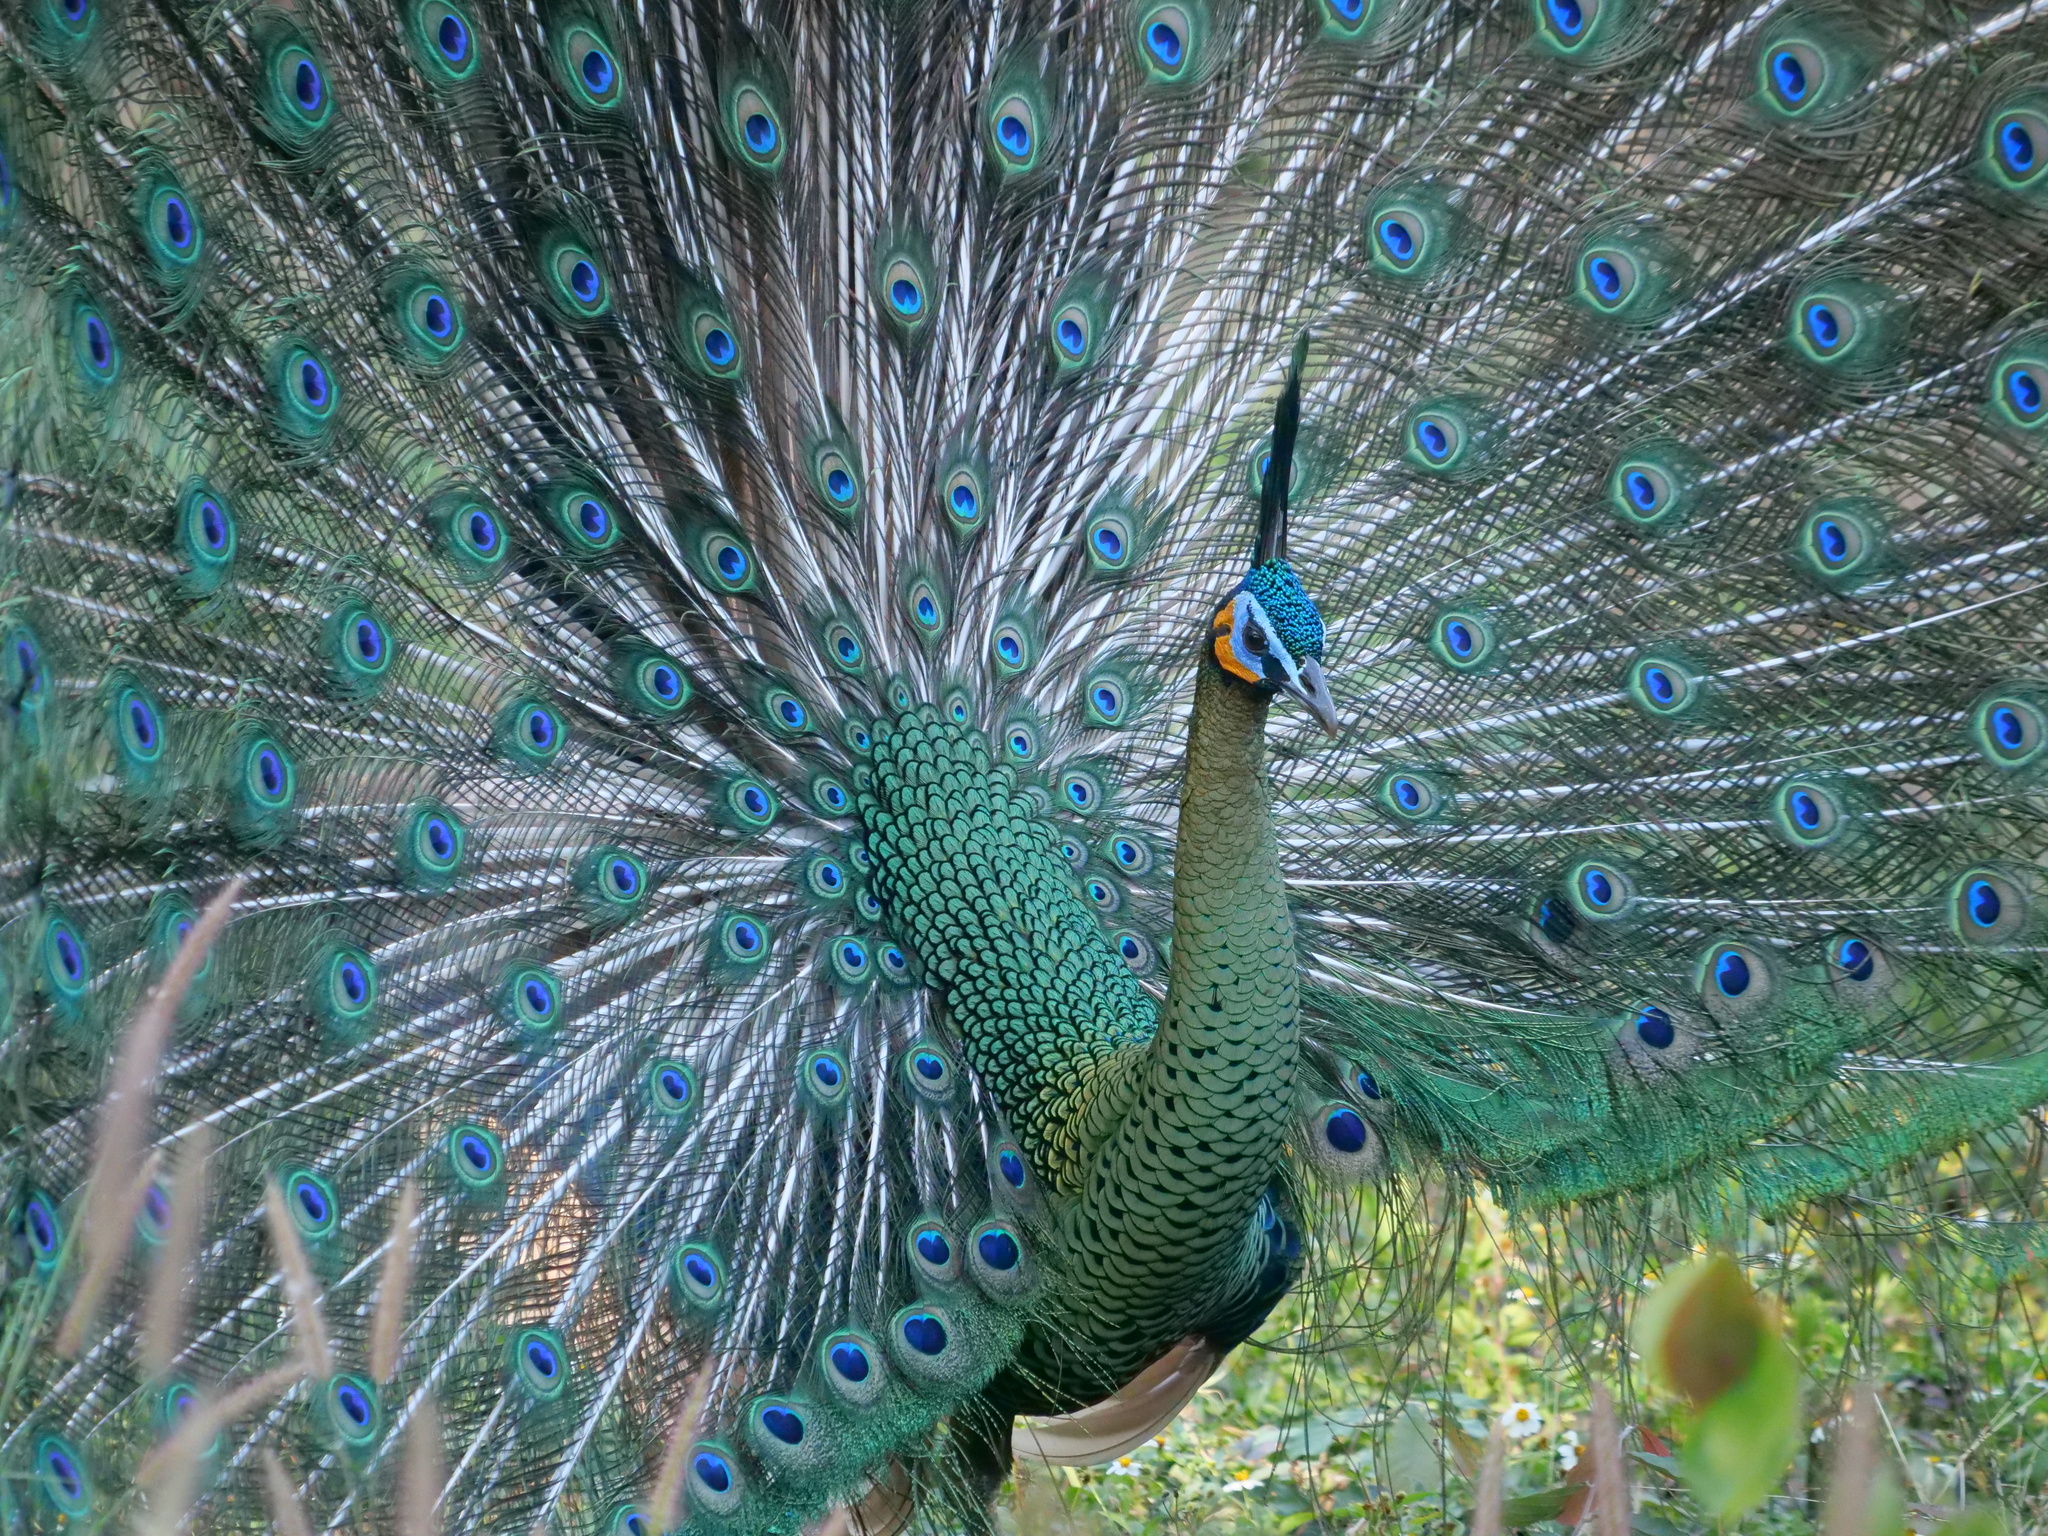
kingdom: Animalia
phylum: Chordata
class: Aves
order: Galliformes
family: Phasianidae
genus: Pavo
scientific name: Pavo muticus
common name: Green peafowl
